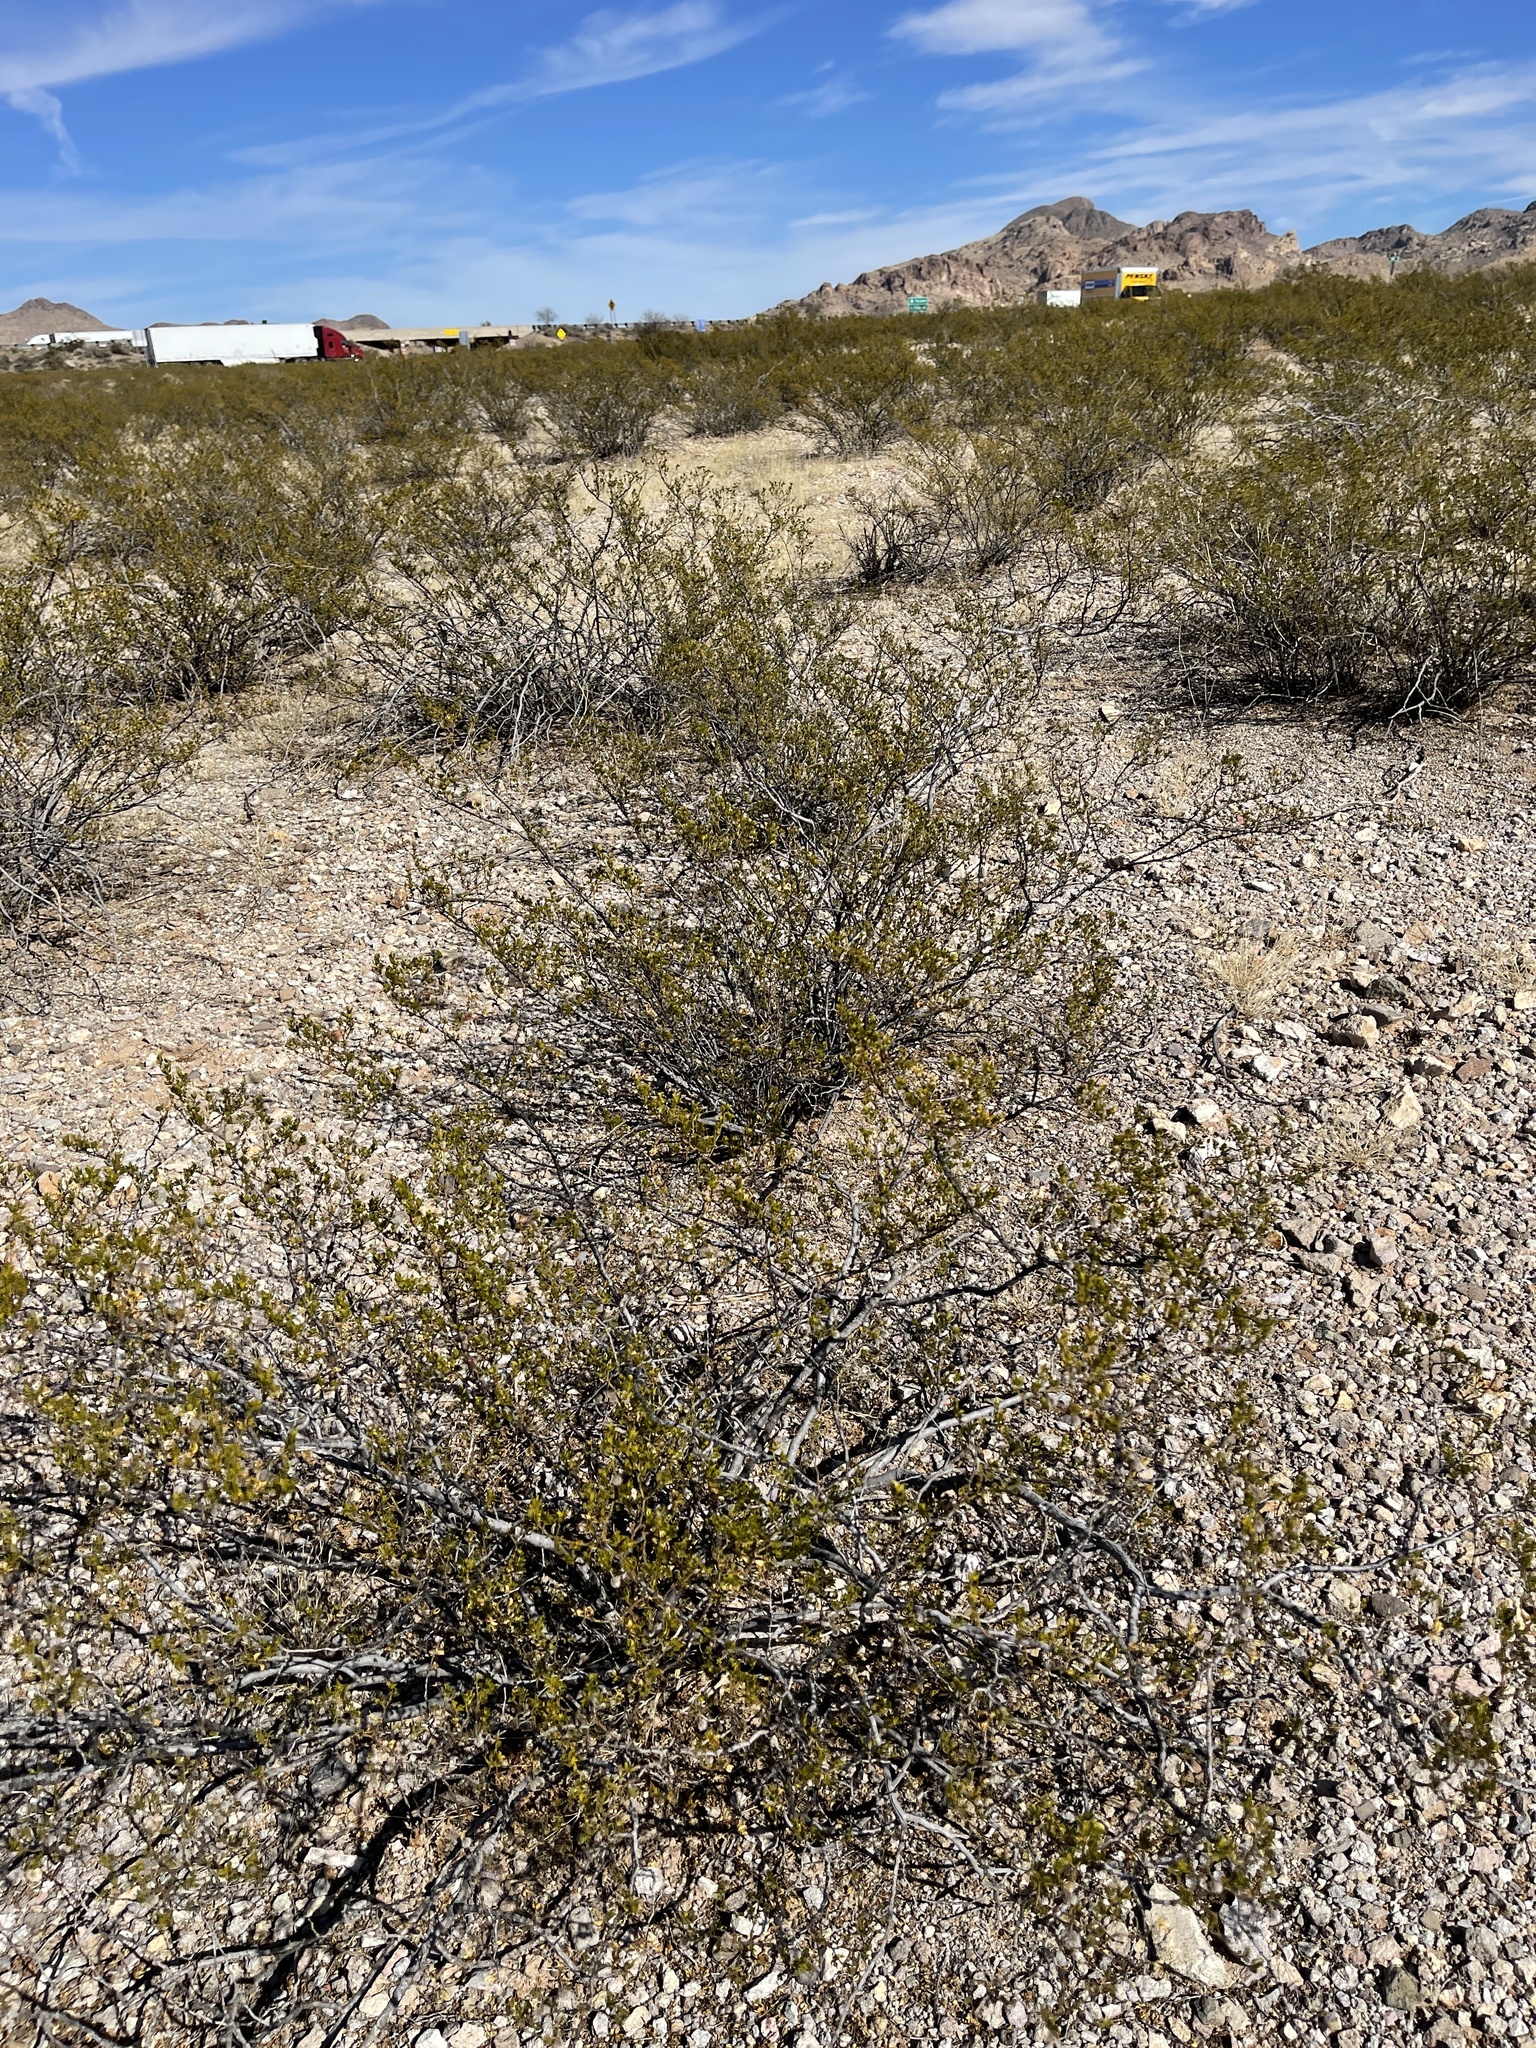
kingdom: Plantae
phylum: Tracheophyta
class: Magnoliopsida
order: Zygophyllales
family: Zygophyllaceae
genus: Larrea
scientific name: Larrea tridentata
